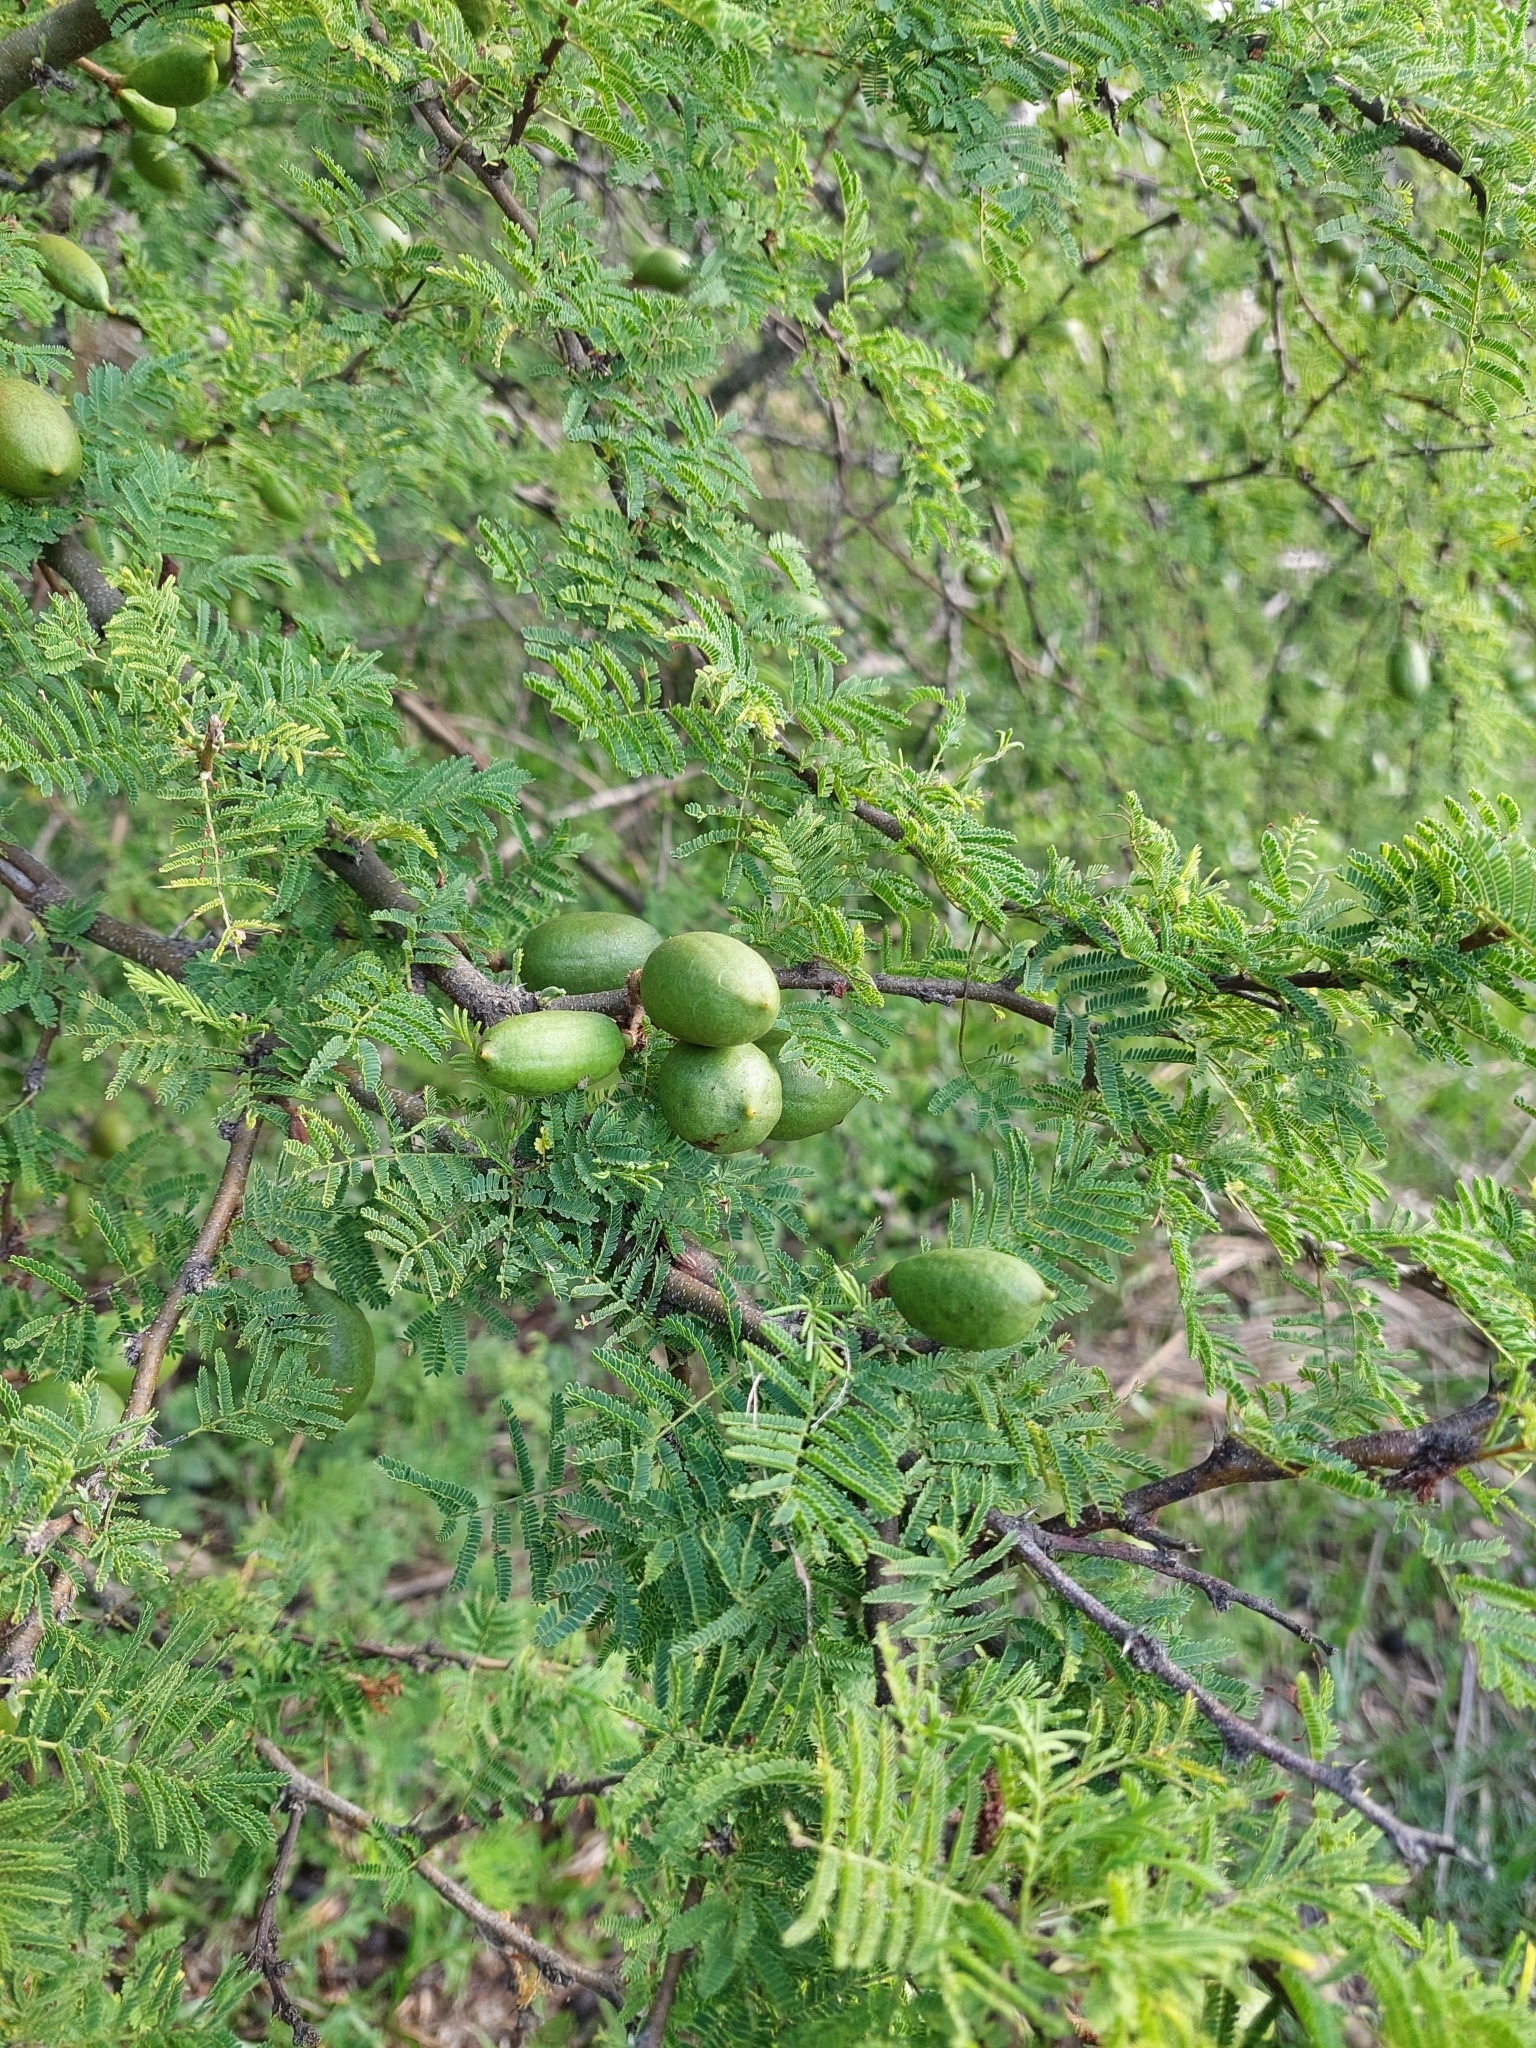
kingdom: Plantae
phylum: Tracheophyta
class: Magnoliopsida
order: Fabales
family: Fabaceae
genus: Vachellia
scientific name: Vachellia caven
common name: Roman cassie
